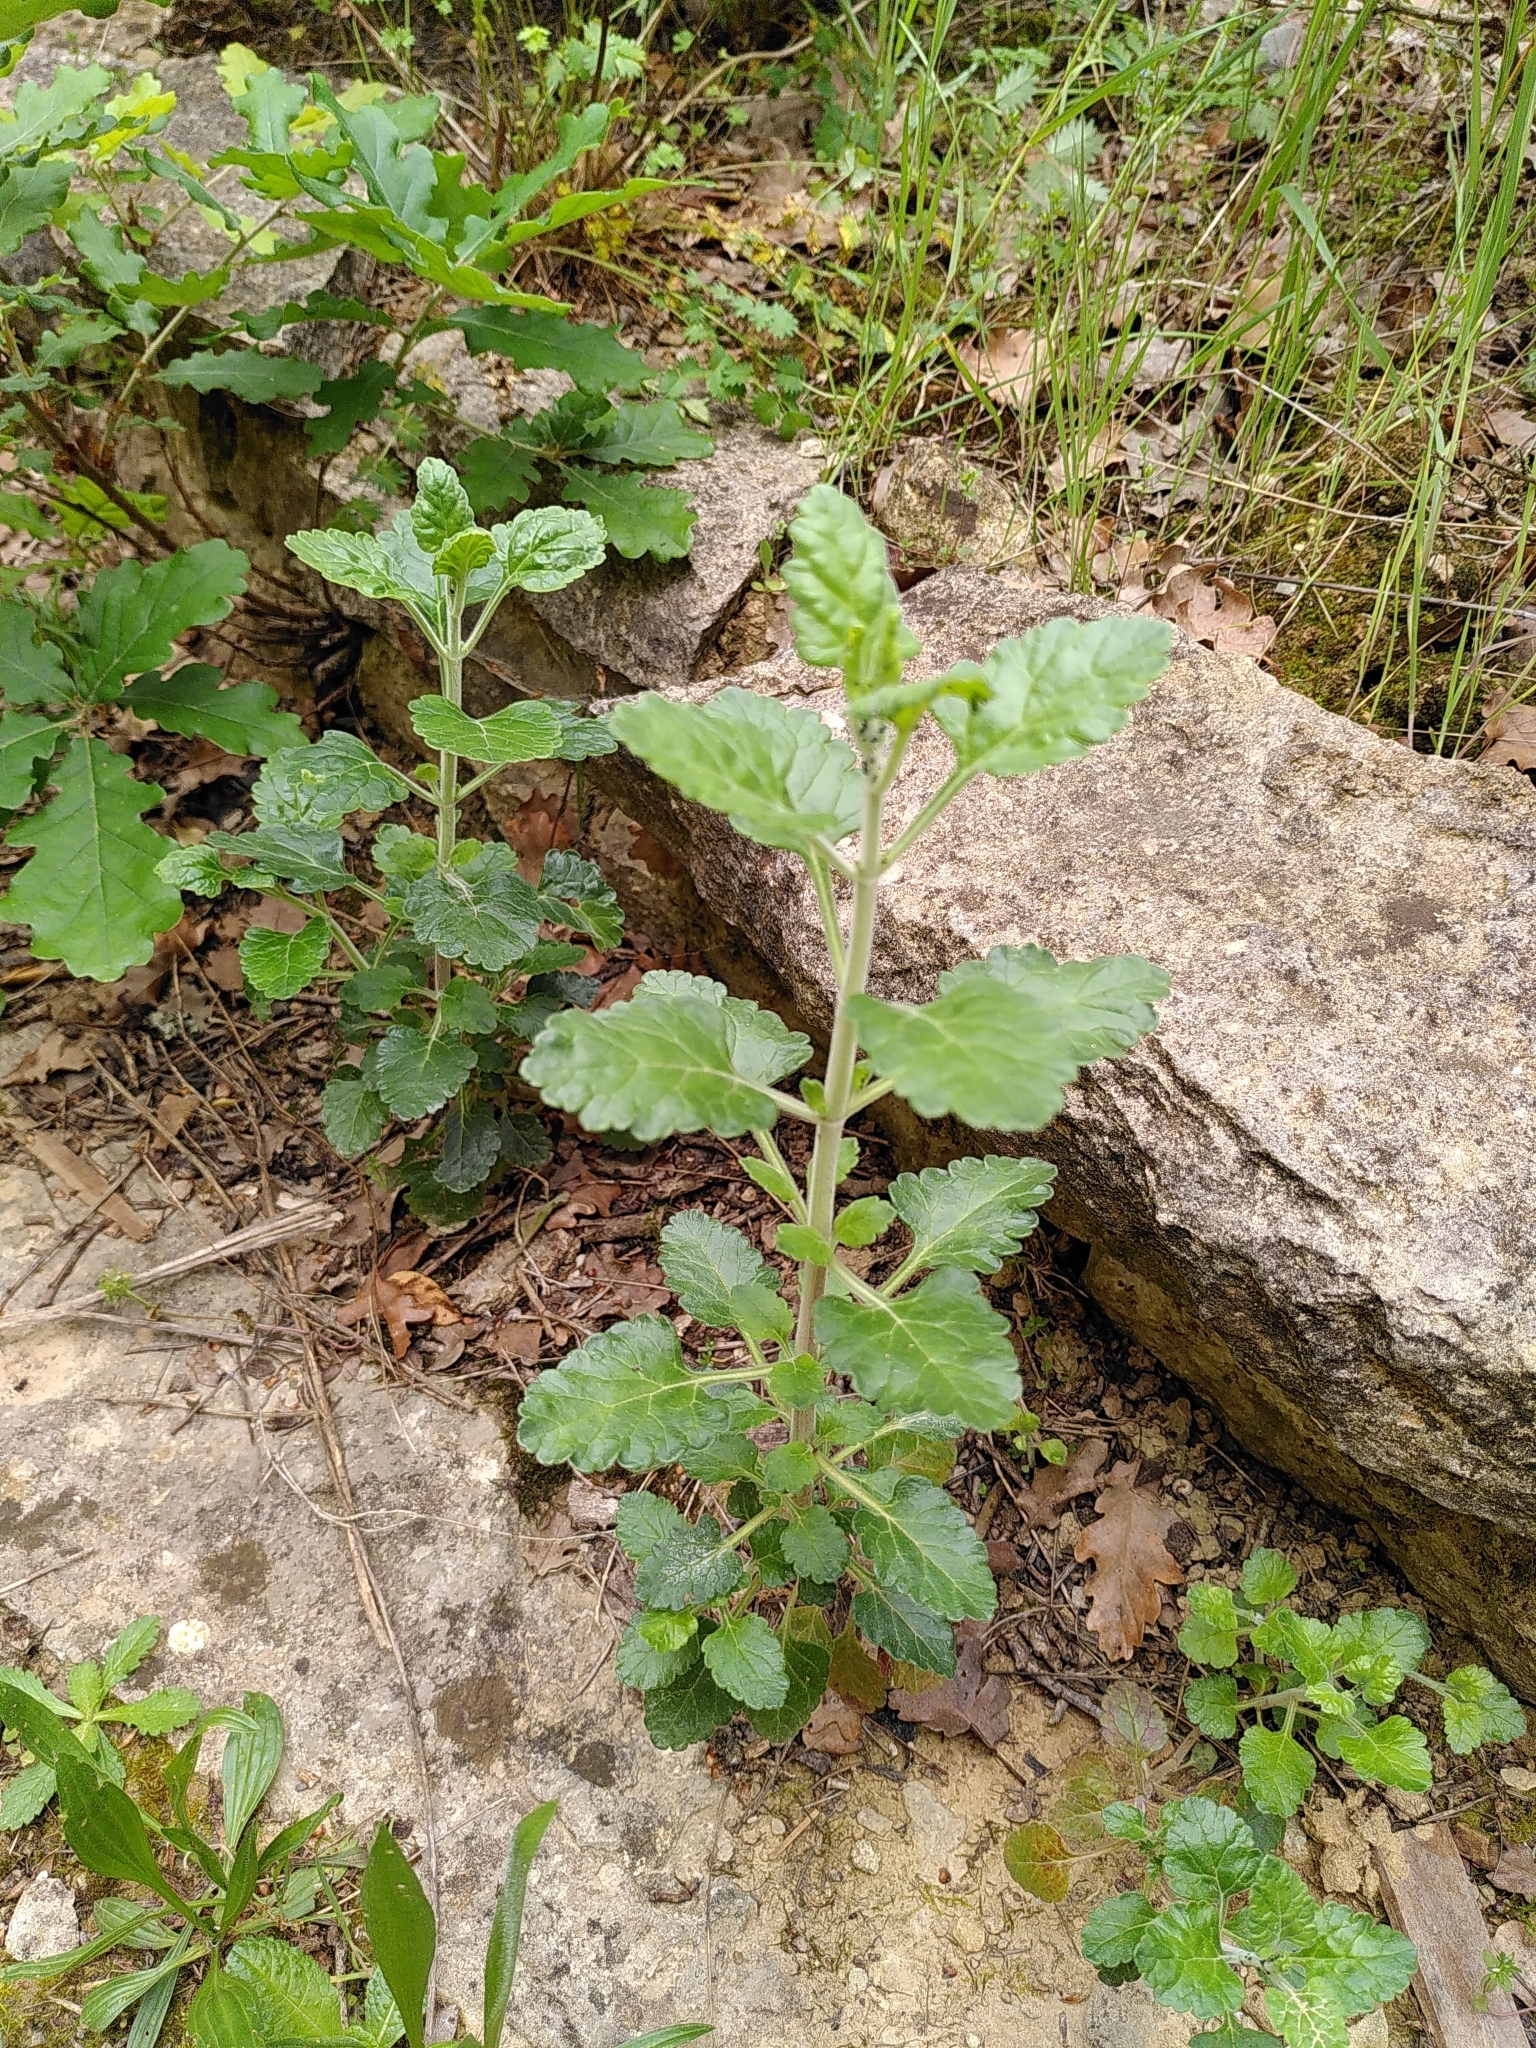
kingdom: Plantae
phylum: Tracheophyta
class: Magnoliopsida
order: Lamiales
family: Lamiaceae
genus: Teucrium
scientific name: Teucrium flavum
